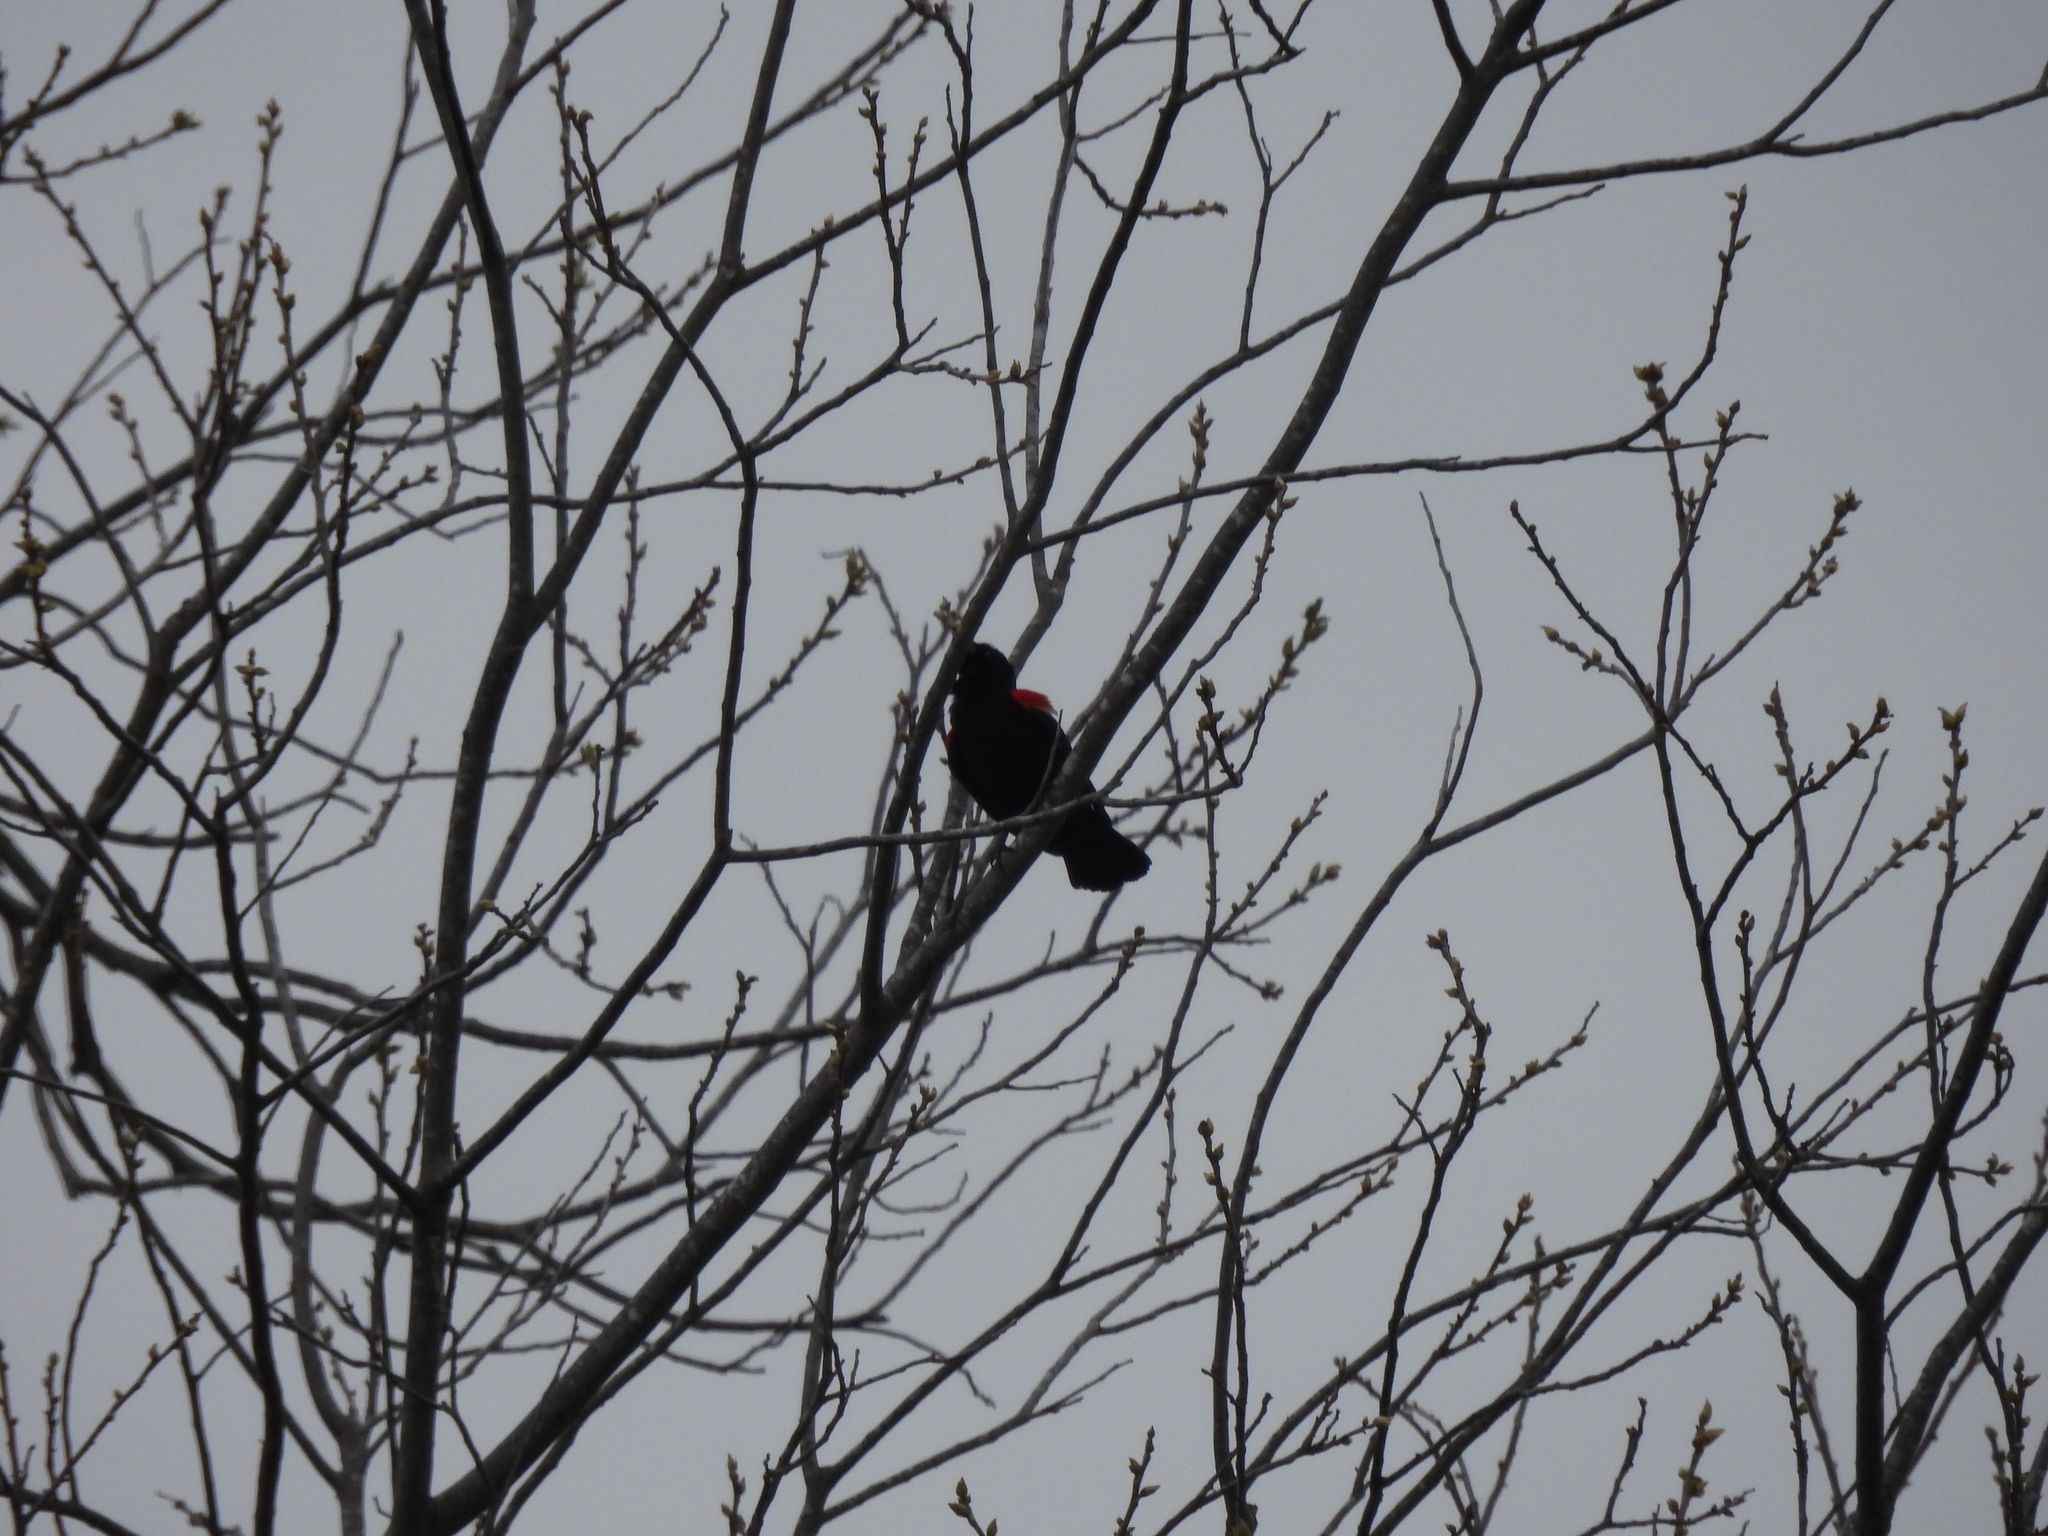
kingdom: Animalia
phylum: Chordata
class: Aves
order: Passeriformes
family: Icteridae
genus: Agelaius
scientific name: Agelaius phoeniceus
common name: Red-winged blackbird
